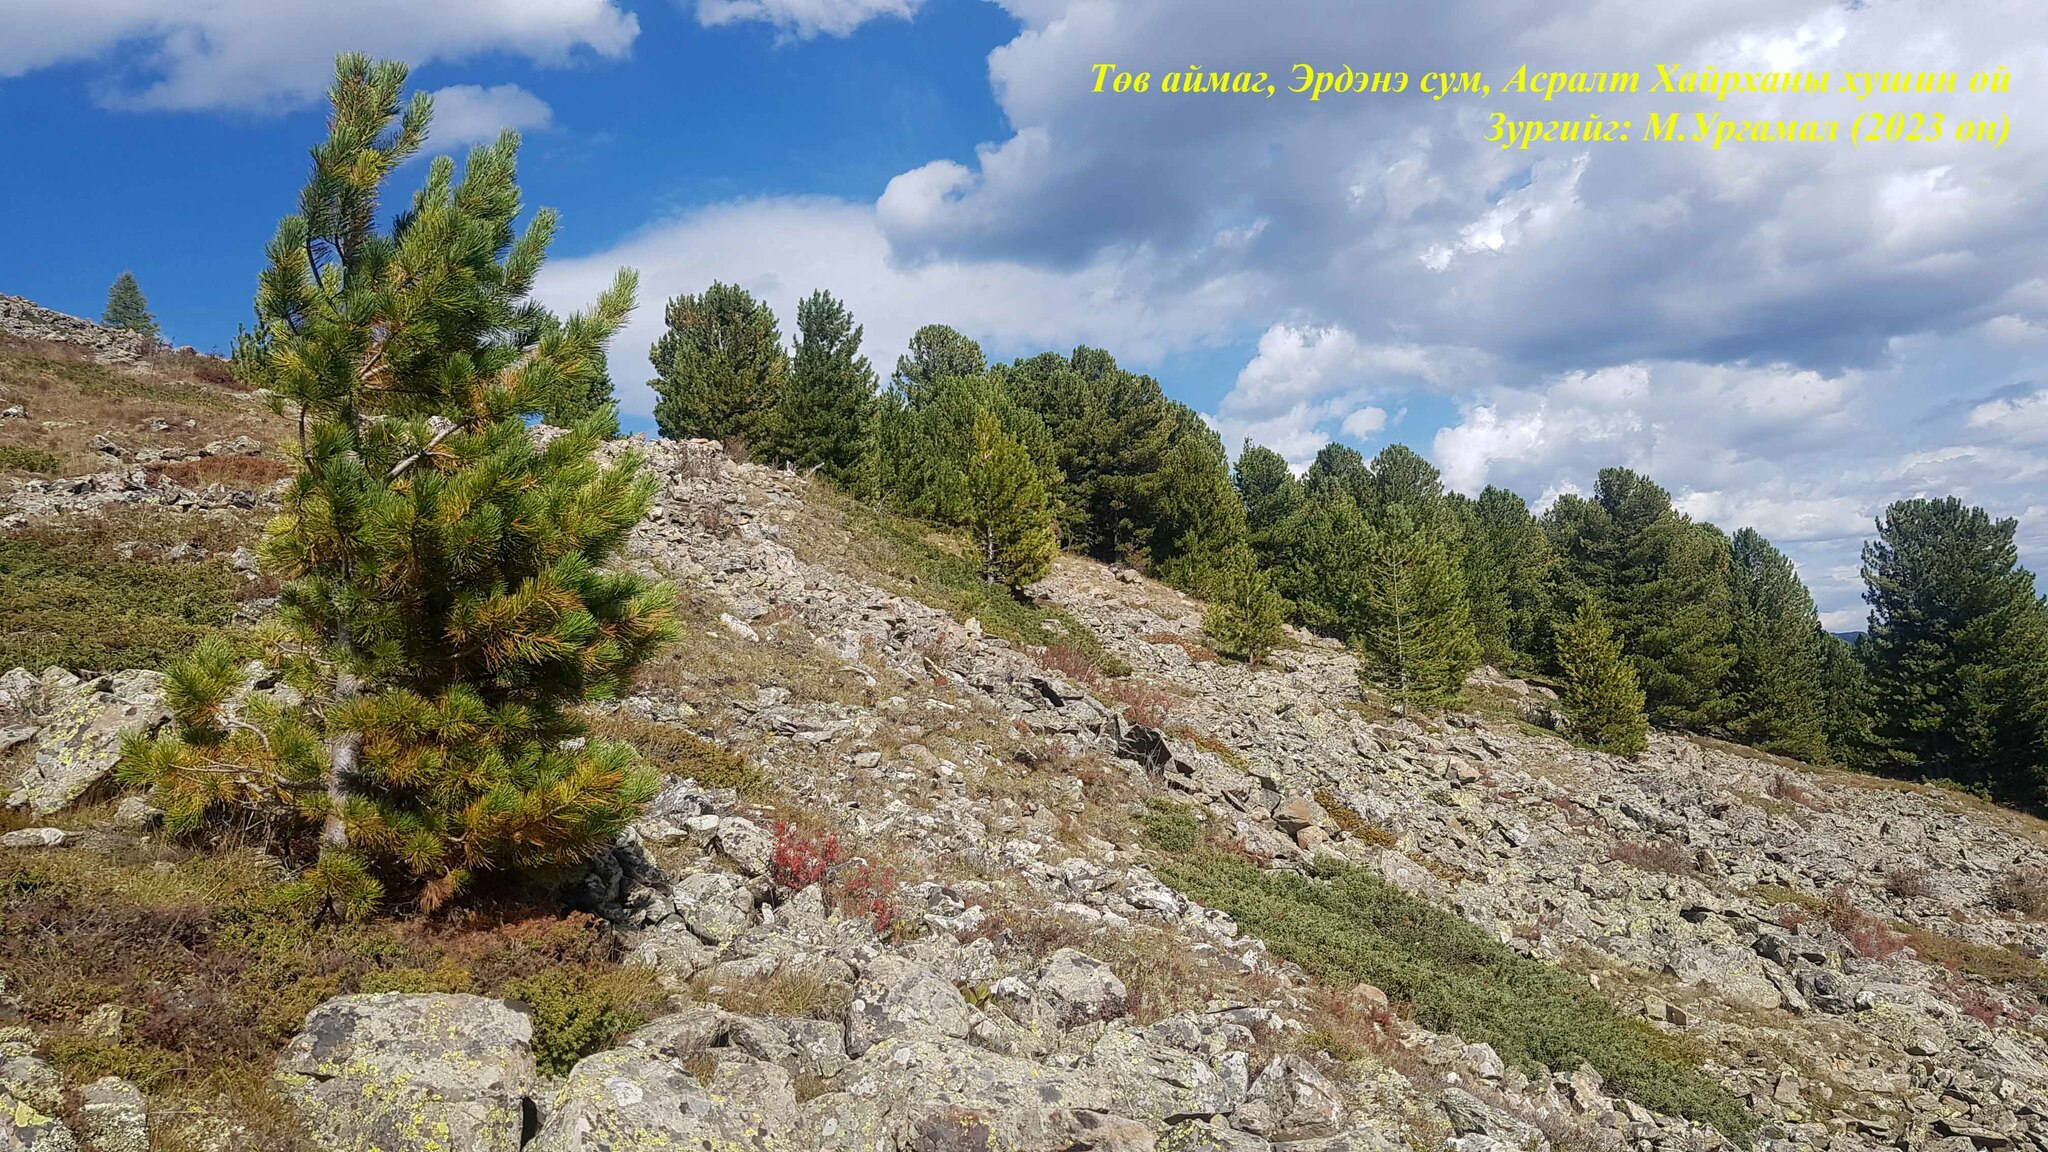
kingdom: Plantae
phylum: Tracheophyta
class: Pinopsida
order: Pinales
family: Pinaceae
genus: Pinus
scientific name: Pinus sibirica
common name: Siberian pine
